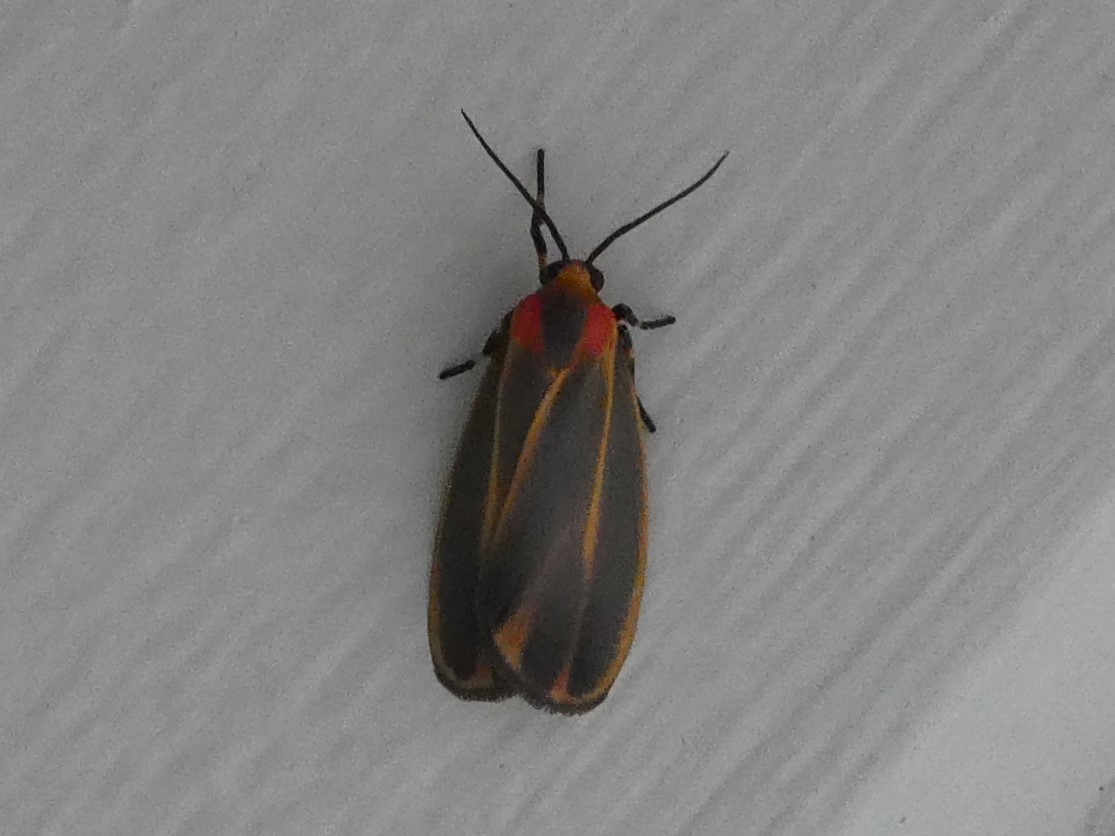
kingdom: Animalia
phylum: Arthropoda
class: Insecta
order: Lepidoptera
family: Erebidae
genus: Hypoprepia
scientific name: Hypoprepia fucosa
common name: Painted lichen moth
